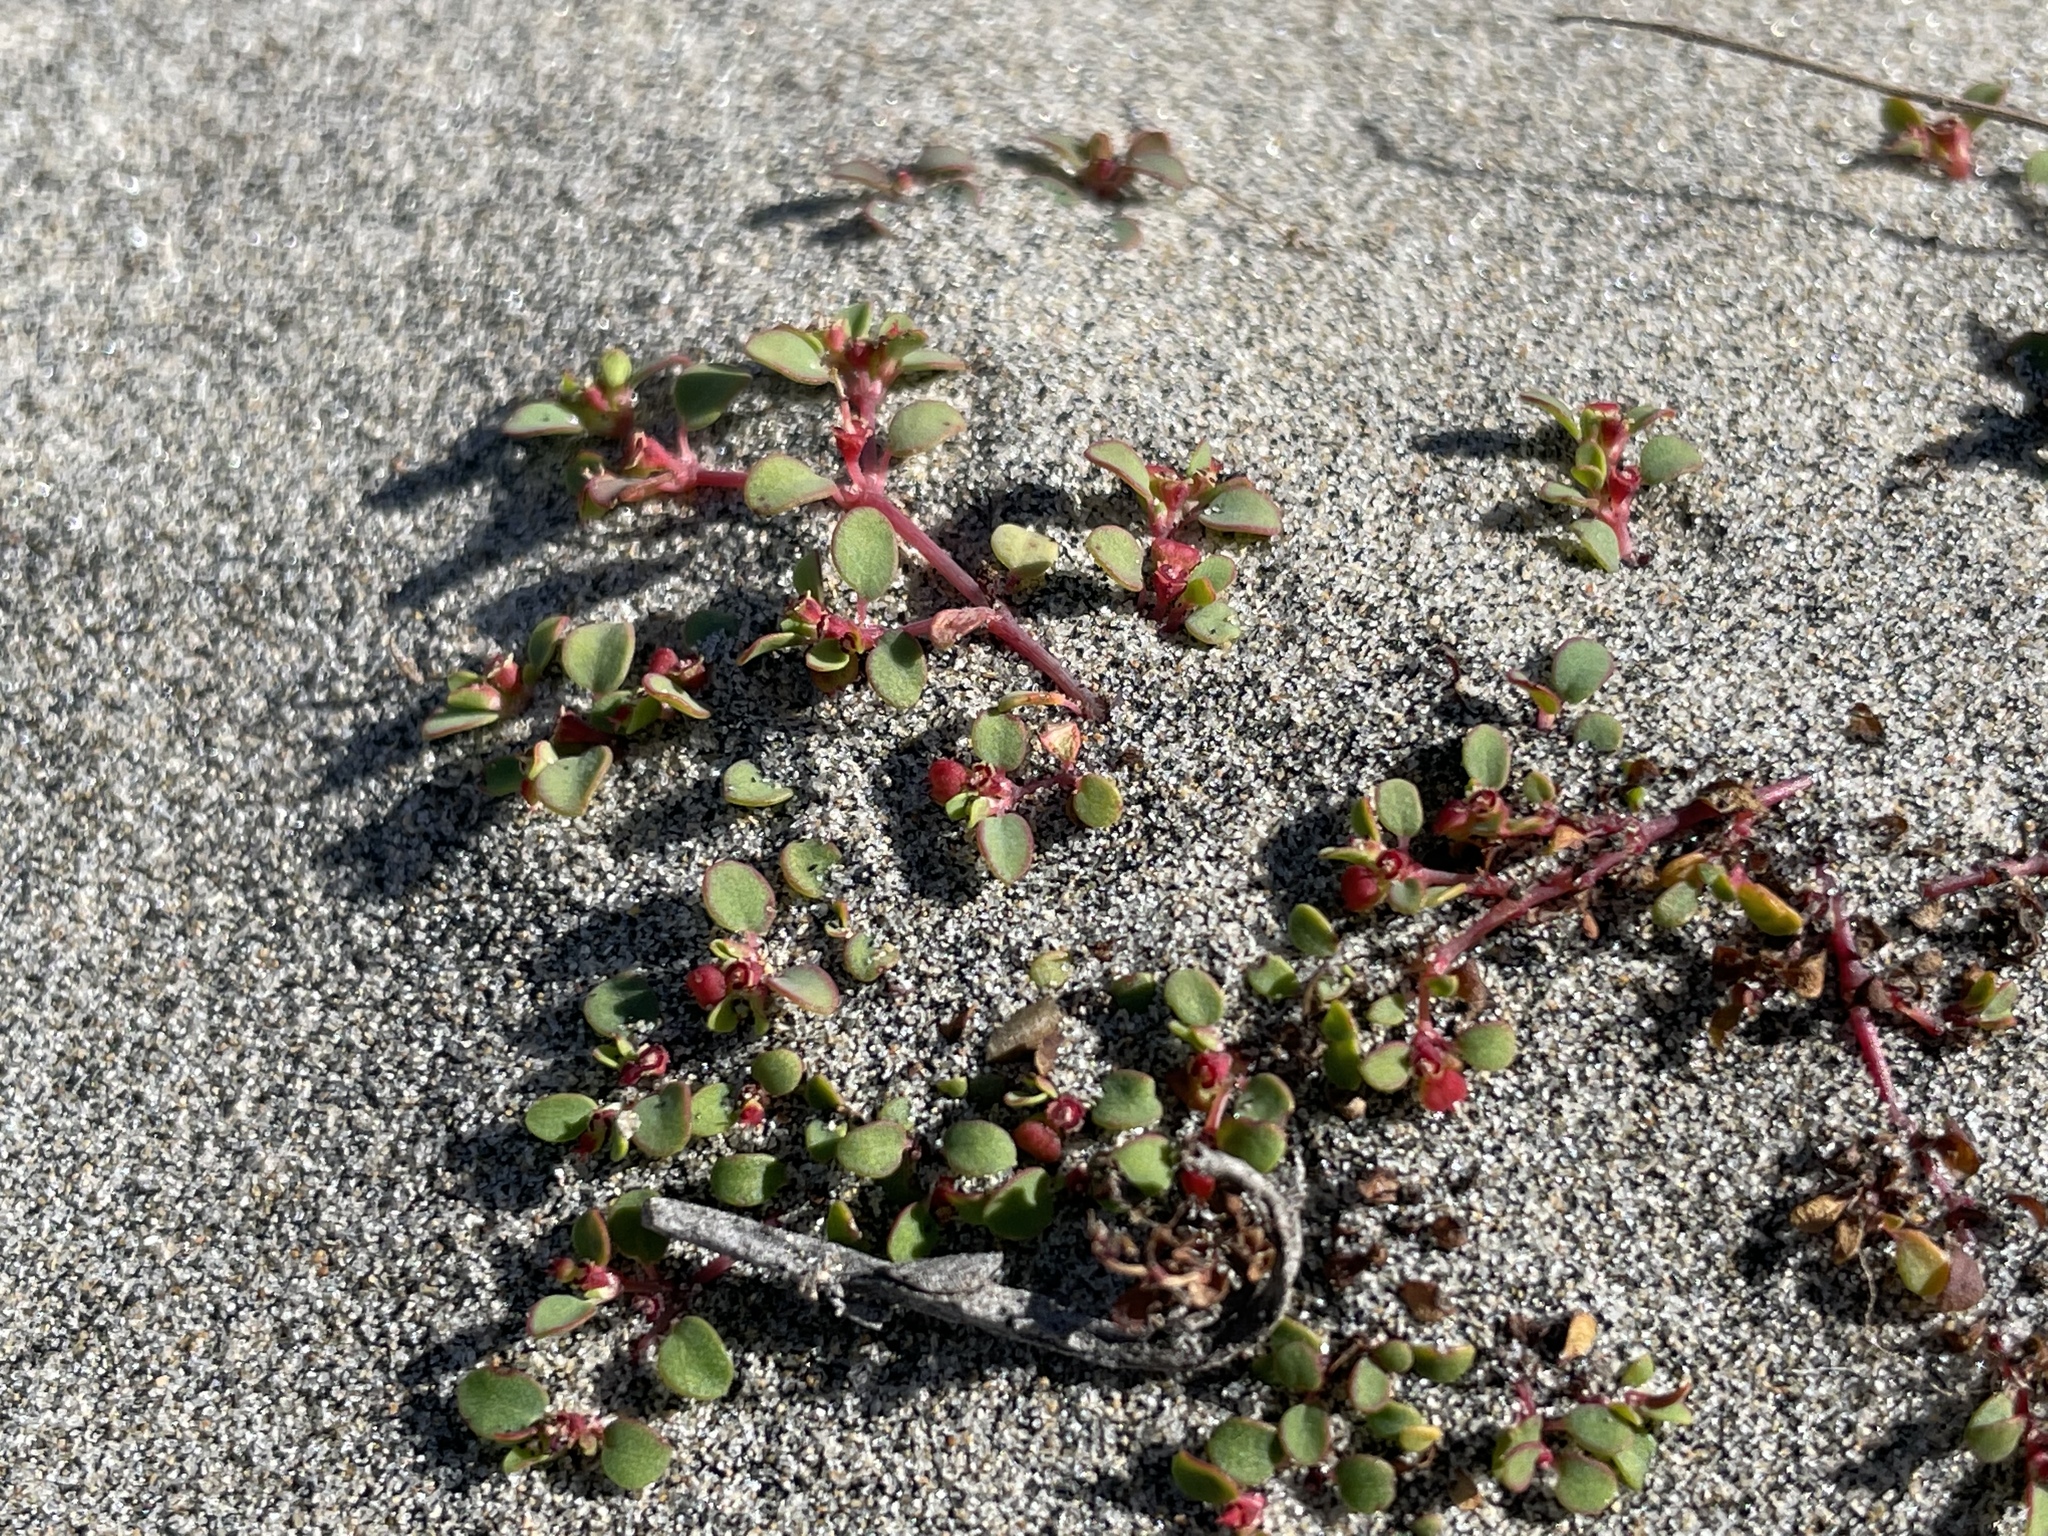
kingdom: Plantae
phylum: Tracheophyta
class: Magnoliopsida
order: Malpighiales
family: Euphorbiaceae
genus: Euphorbia
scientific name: Euphorbia pondii
